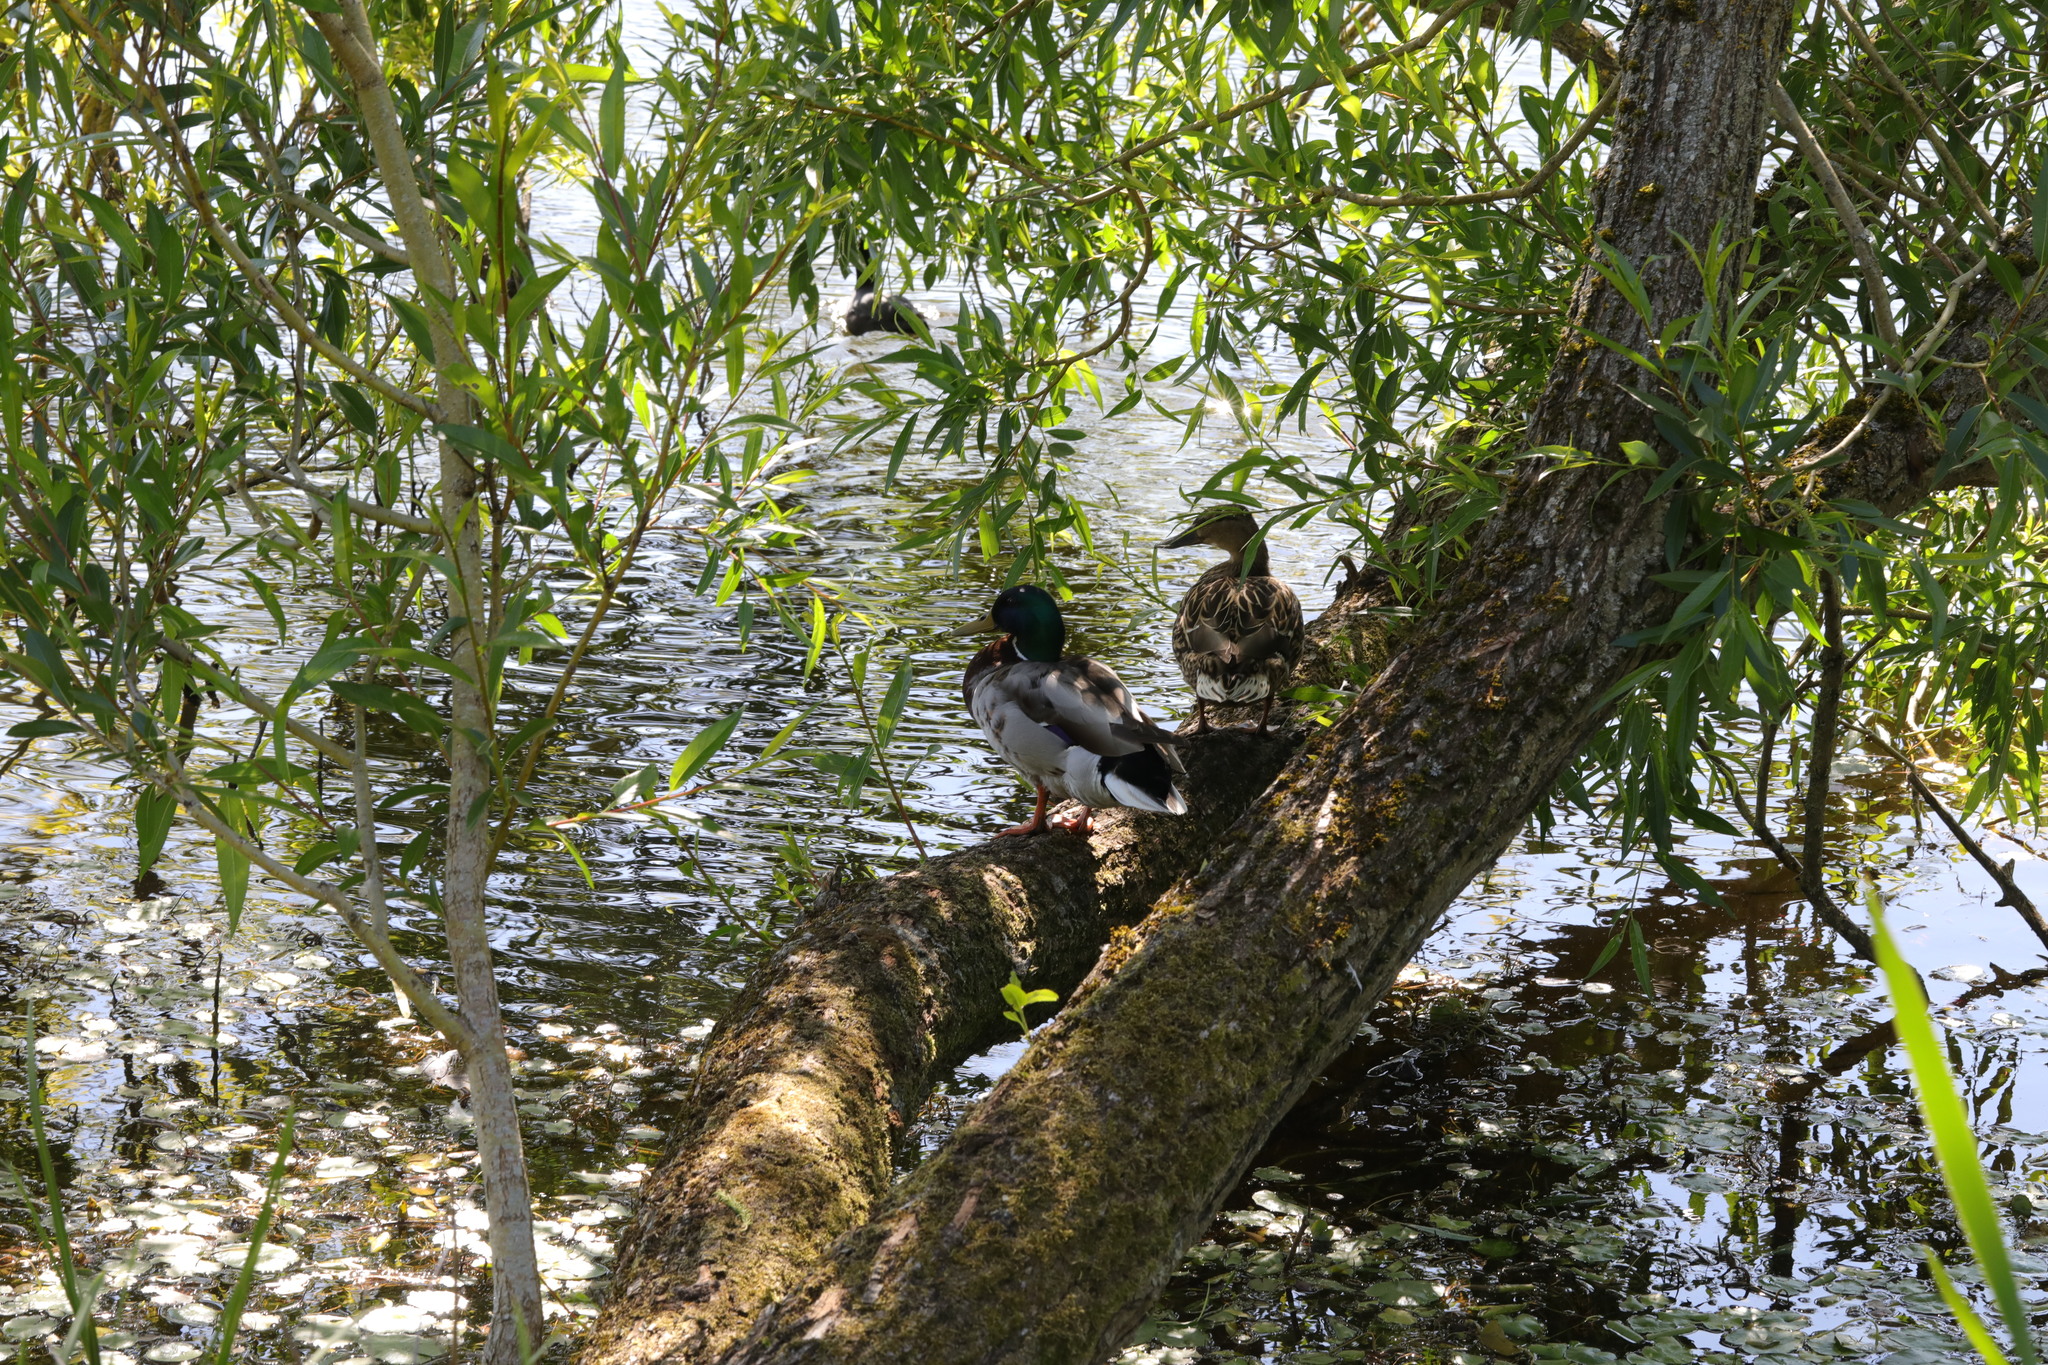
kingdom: Animalia
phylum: Chordata
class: Aves
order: Anseriformes
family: Anatidae
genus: Anas
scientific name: Anas platyrhynchos
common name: Mallard
